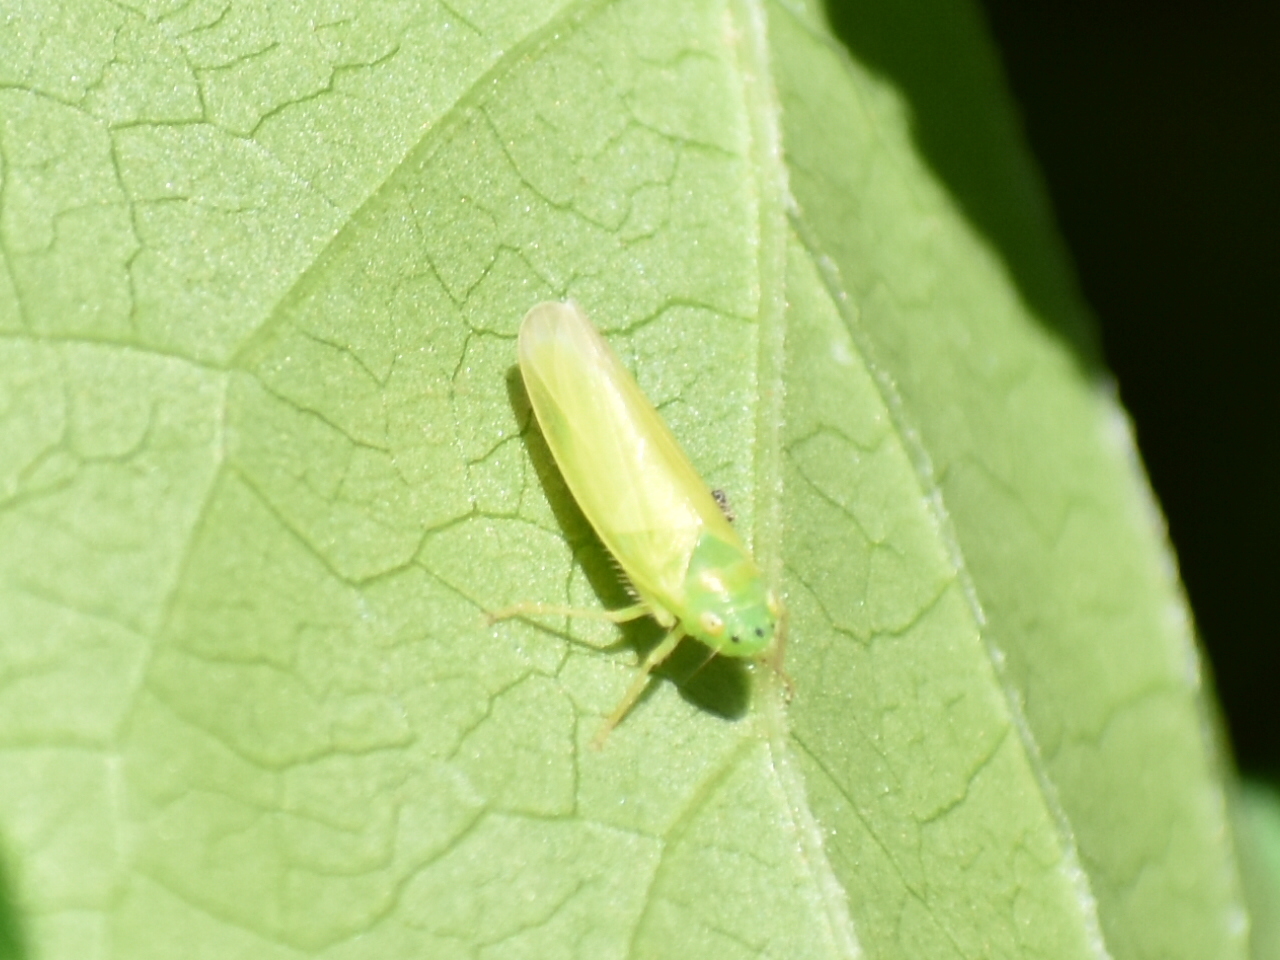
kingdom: Animalia
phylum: Arthropoda
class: Insecta
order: Hemiptera
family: Cicadellidae
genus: Pagaronia
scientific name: Pagaronia minor
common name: Leafhopper
